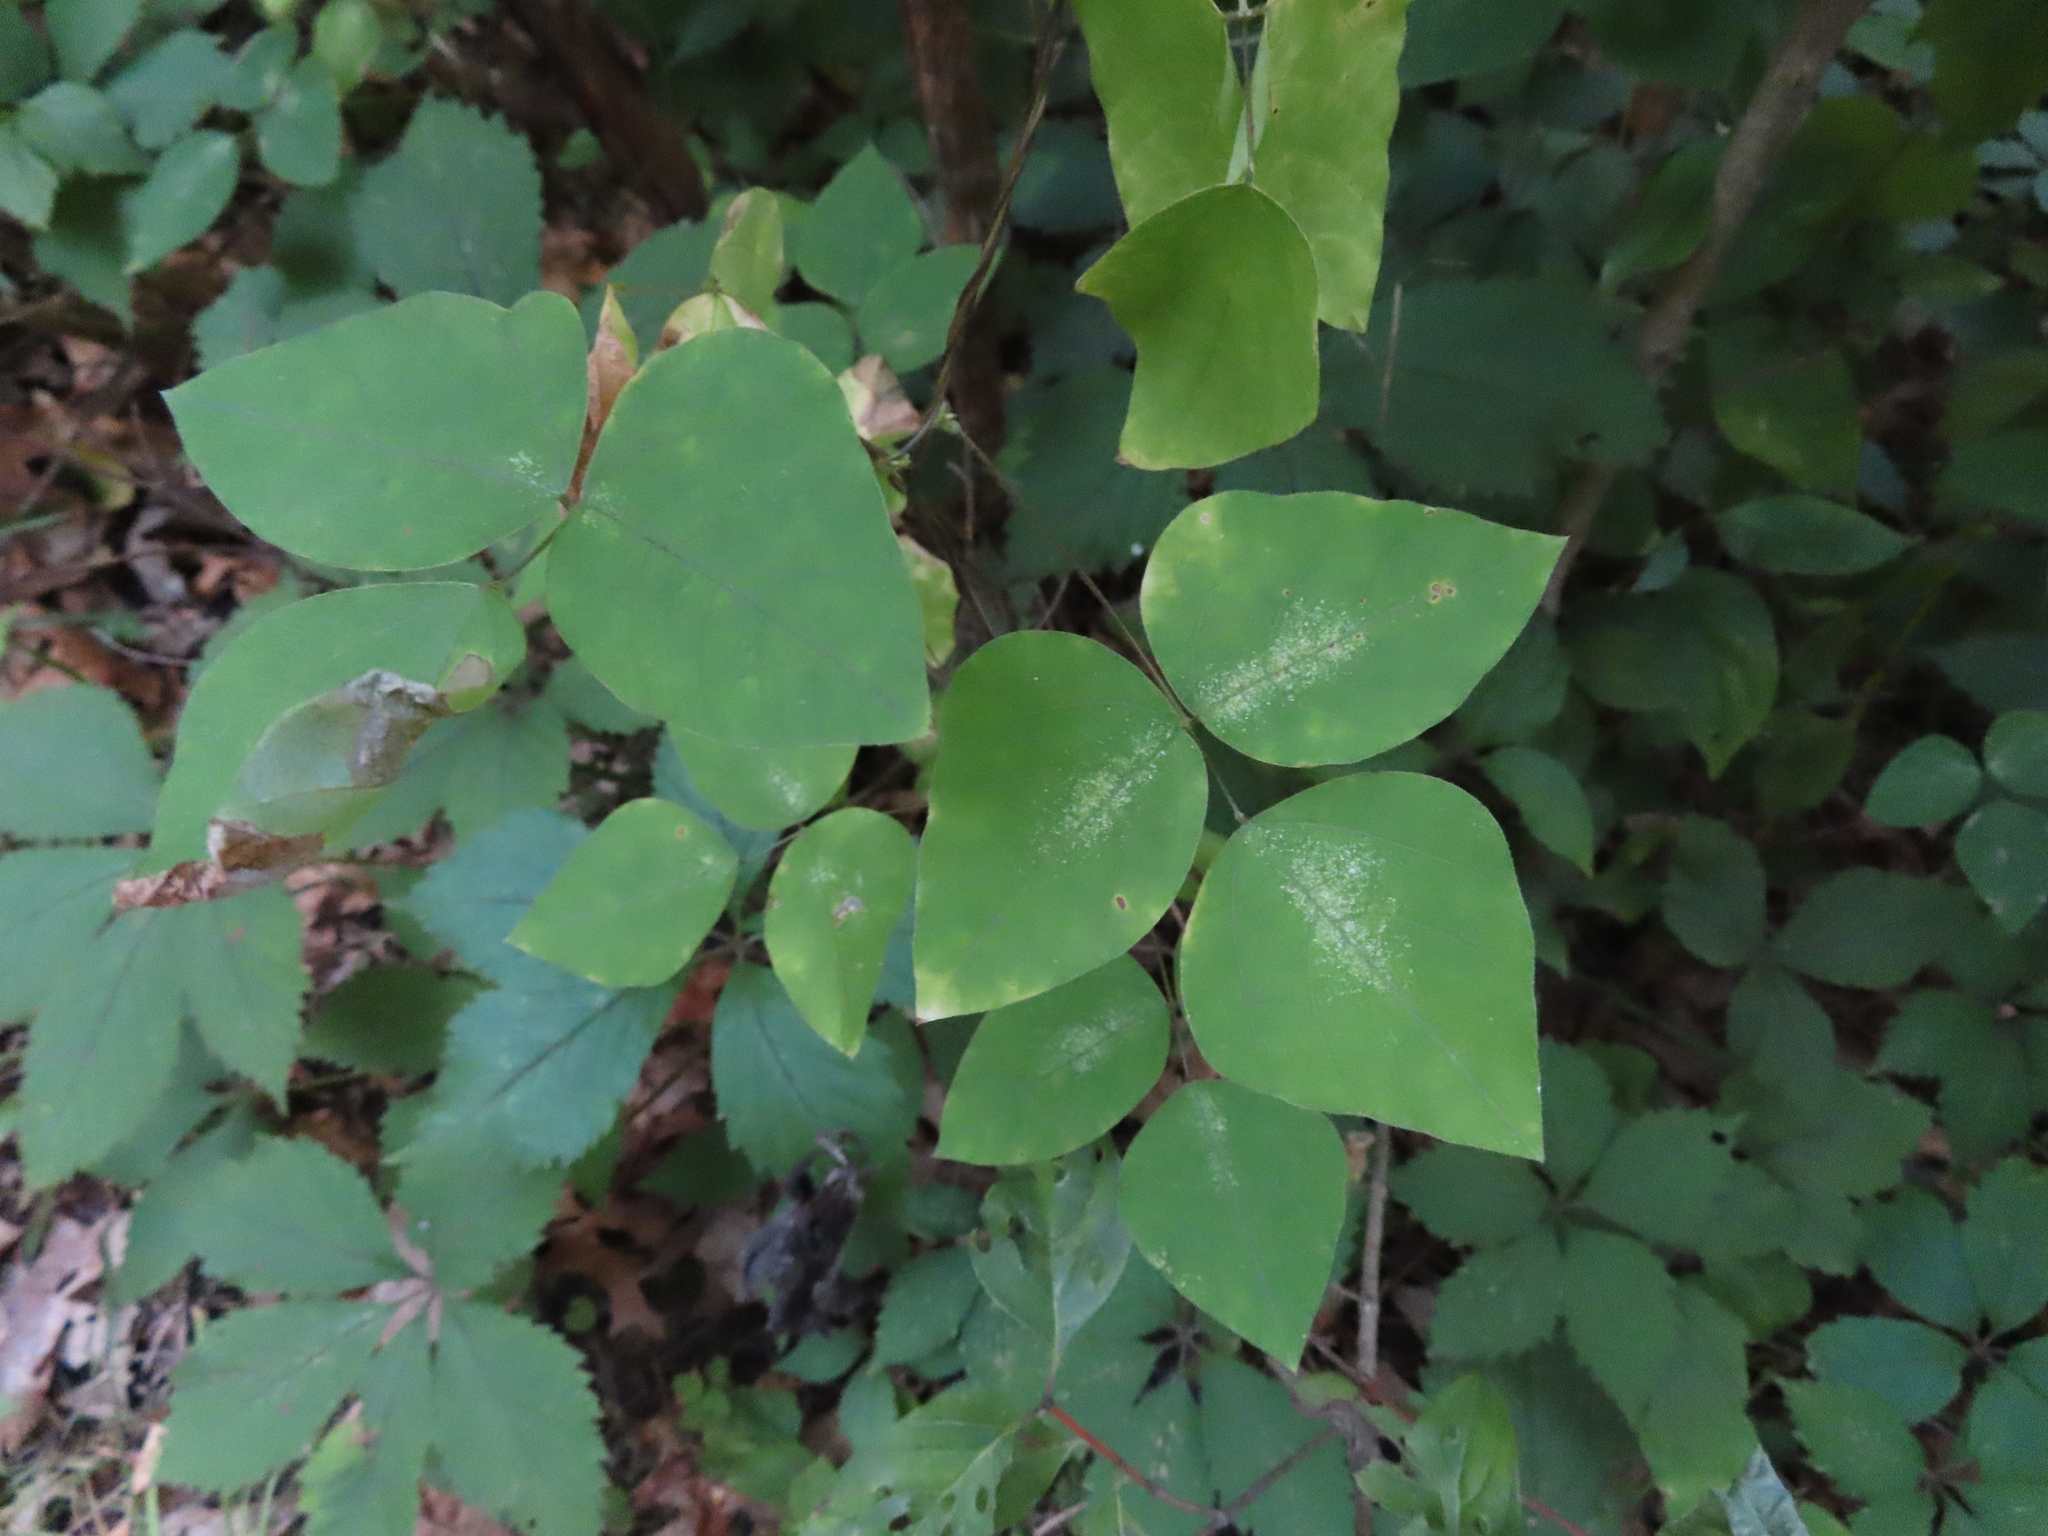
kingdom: Plantae
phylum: Tracheophyta
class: Magnoliopsida
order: Fabales
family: Fabaceae
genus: Amphicarpaea
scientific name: Amphicarpaea bracteata
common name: American hog peanut
